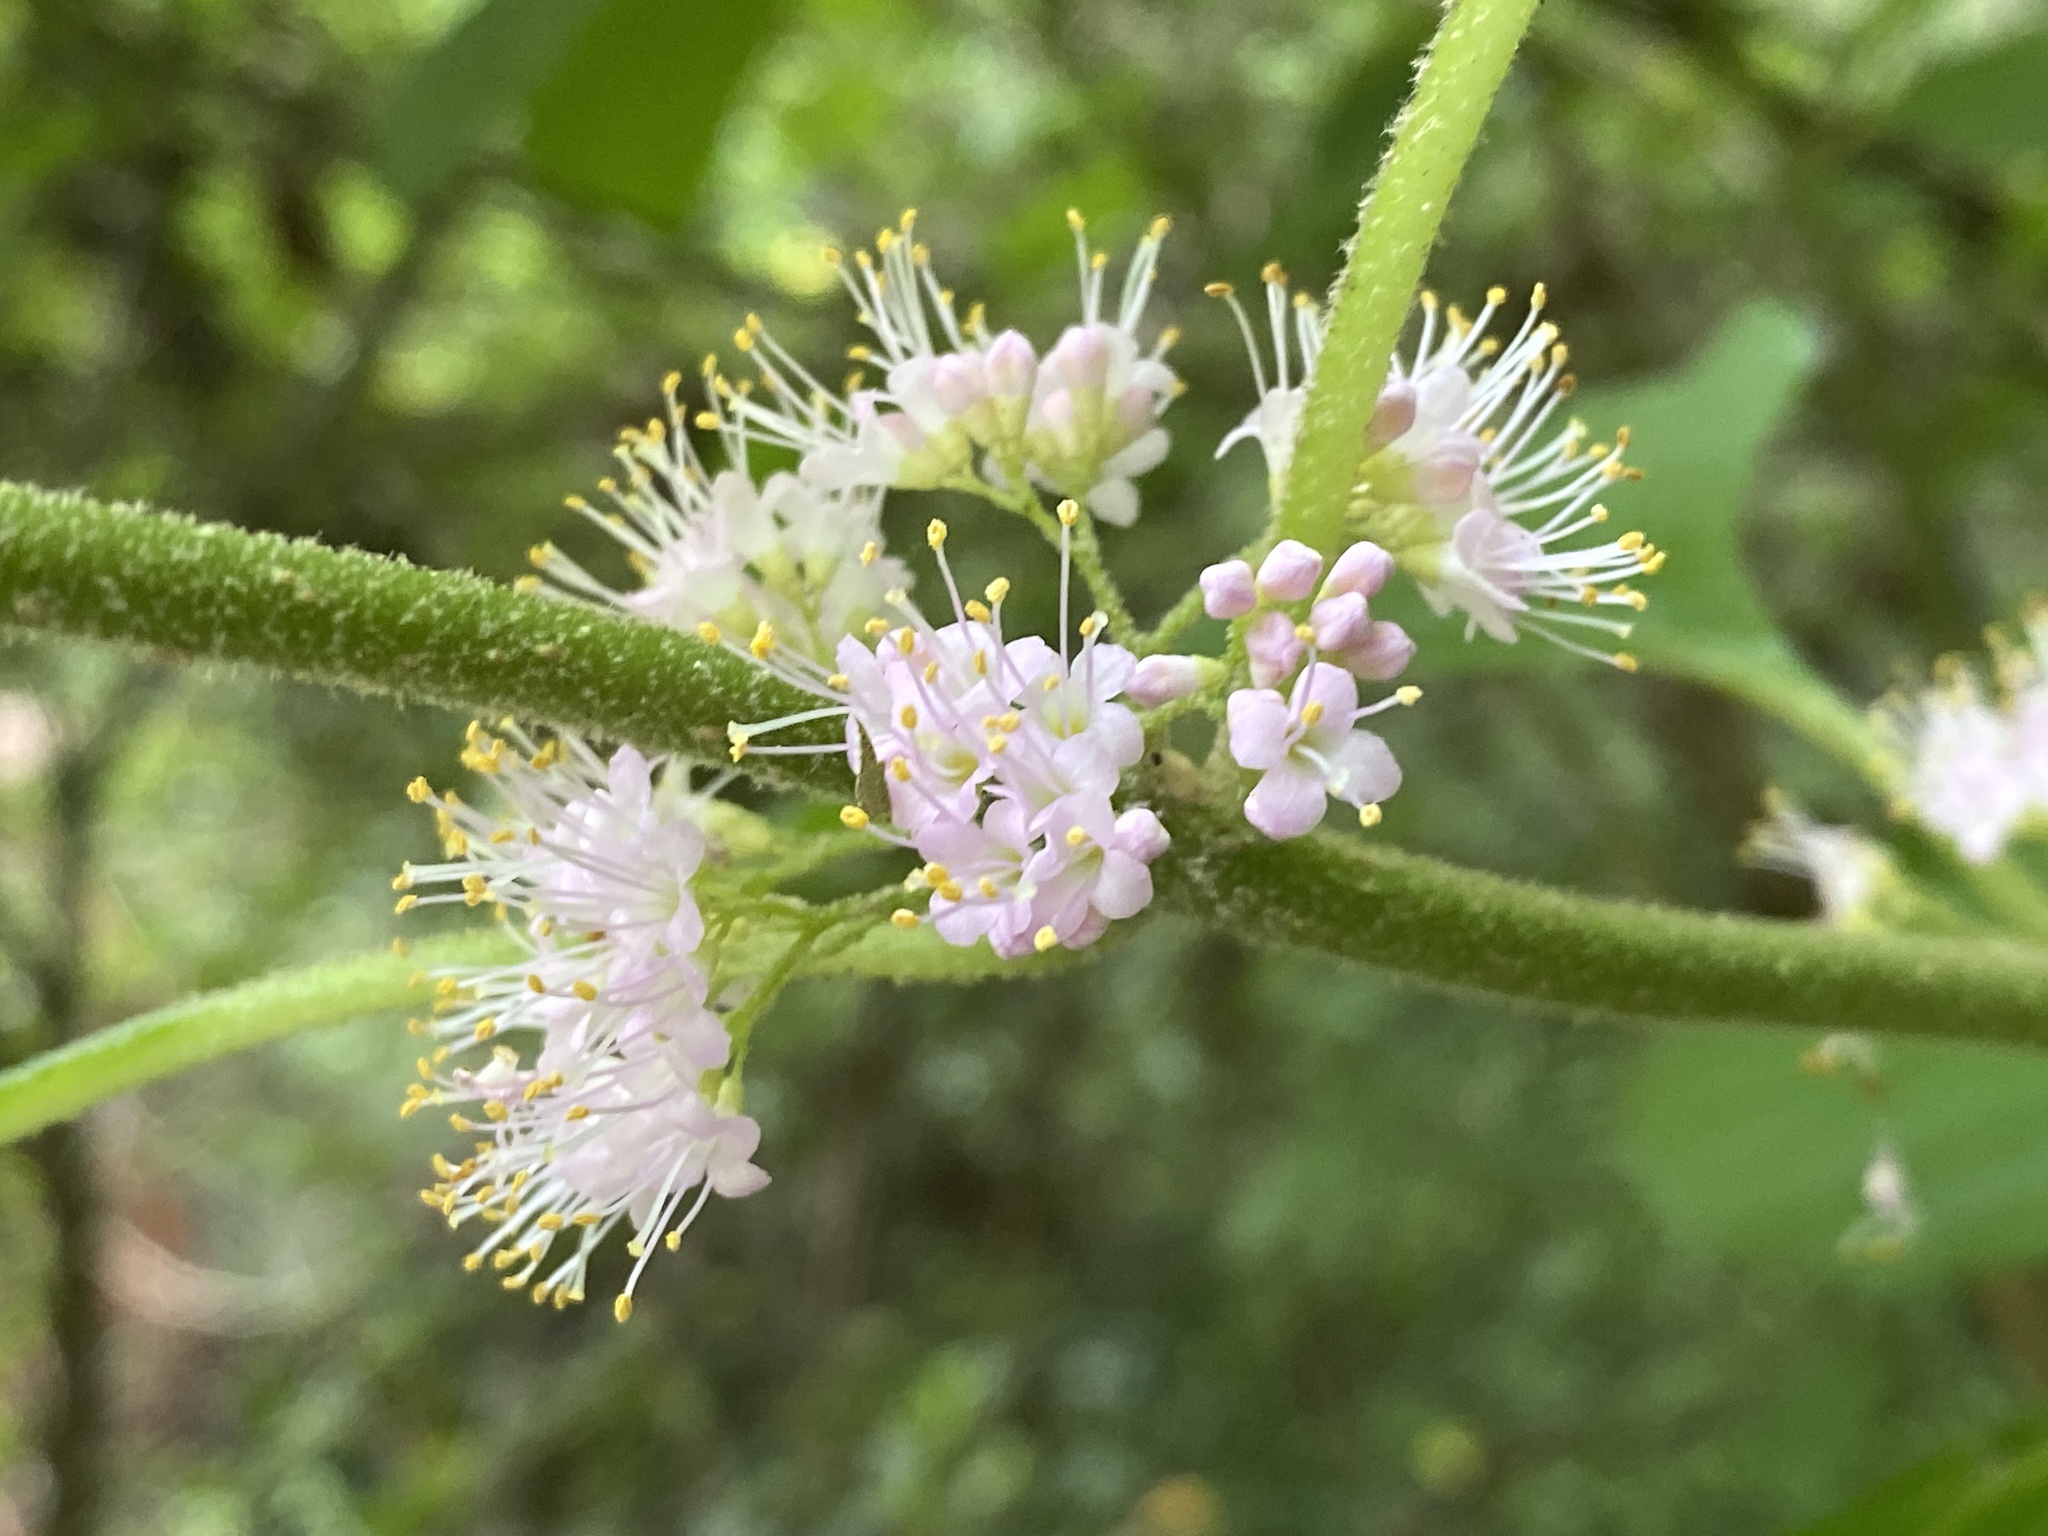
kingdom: Plantae
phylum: Tracheophyta
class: Magnoliopsida
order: Lamiales
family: Lamiaceae
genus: Callicarpa
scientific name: Callicarpa americana
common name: American beautyberry
